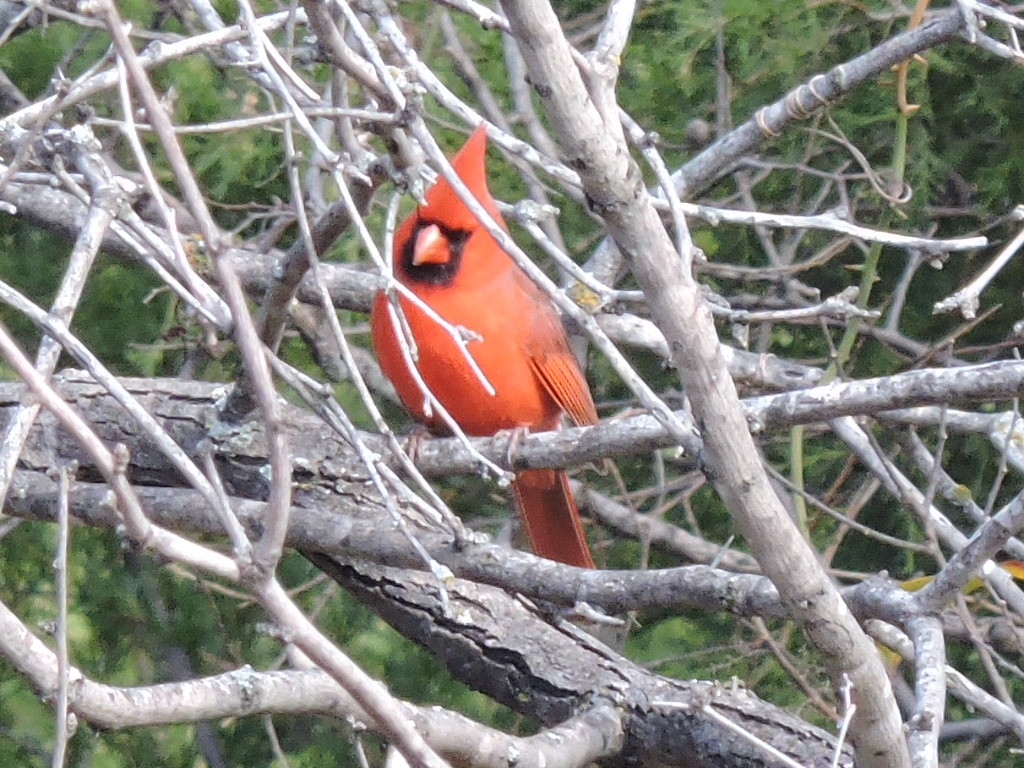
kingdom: Animalia
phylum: Chordata
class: Aves
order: Passeriformes
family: Cardinalidae
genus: Cardinalis
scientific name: Cardinalis cardinalis
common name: Northern cardinal
